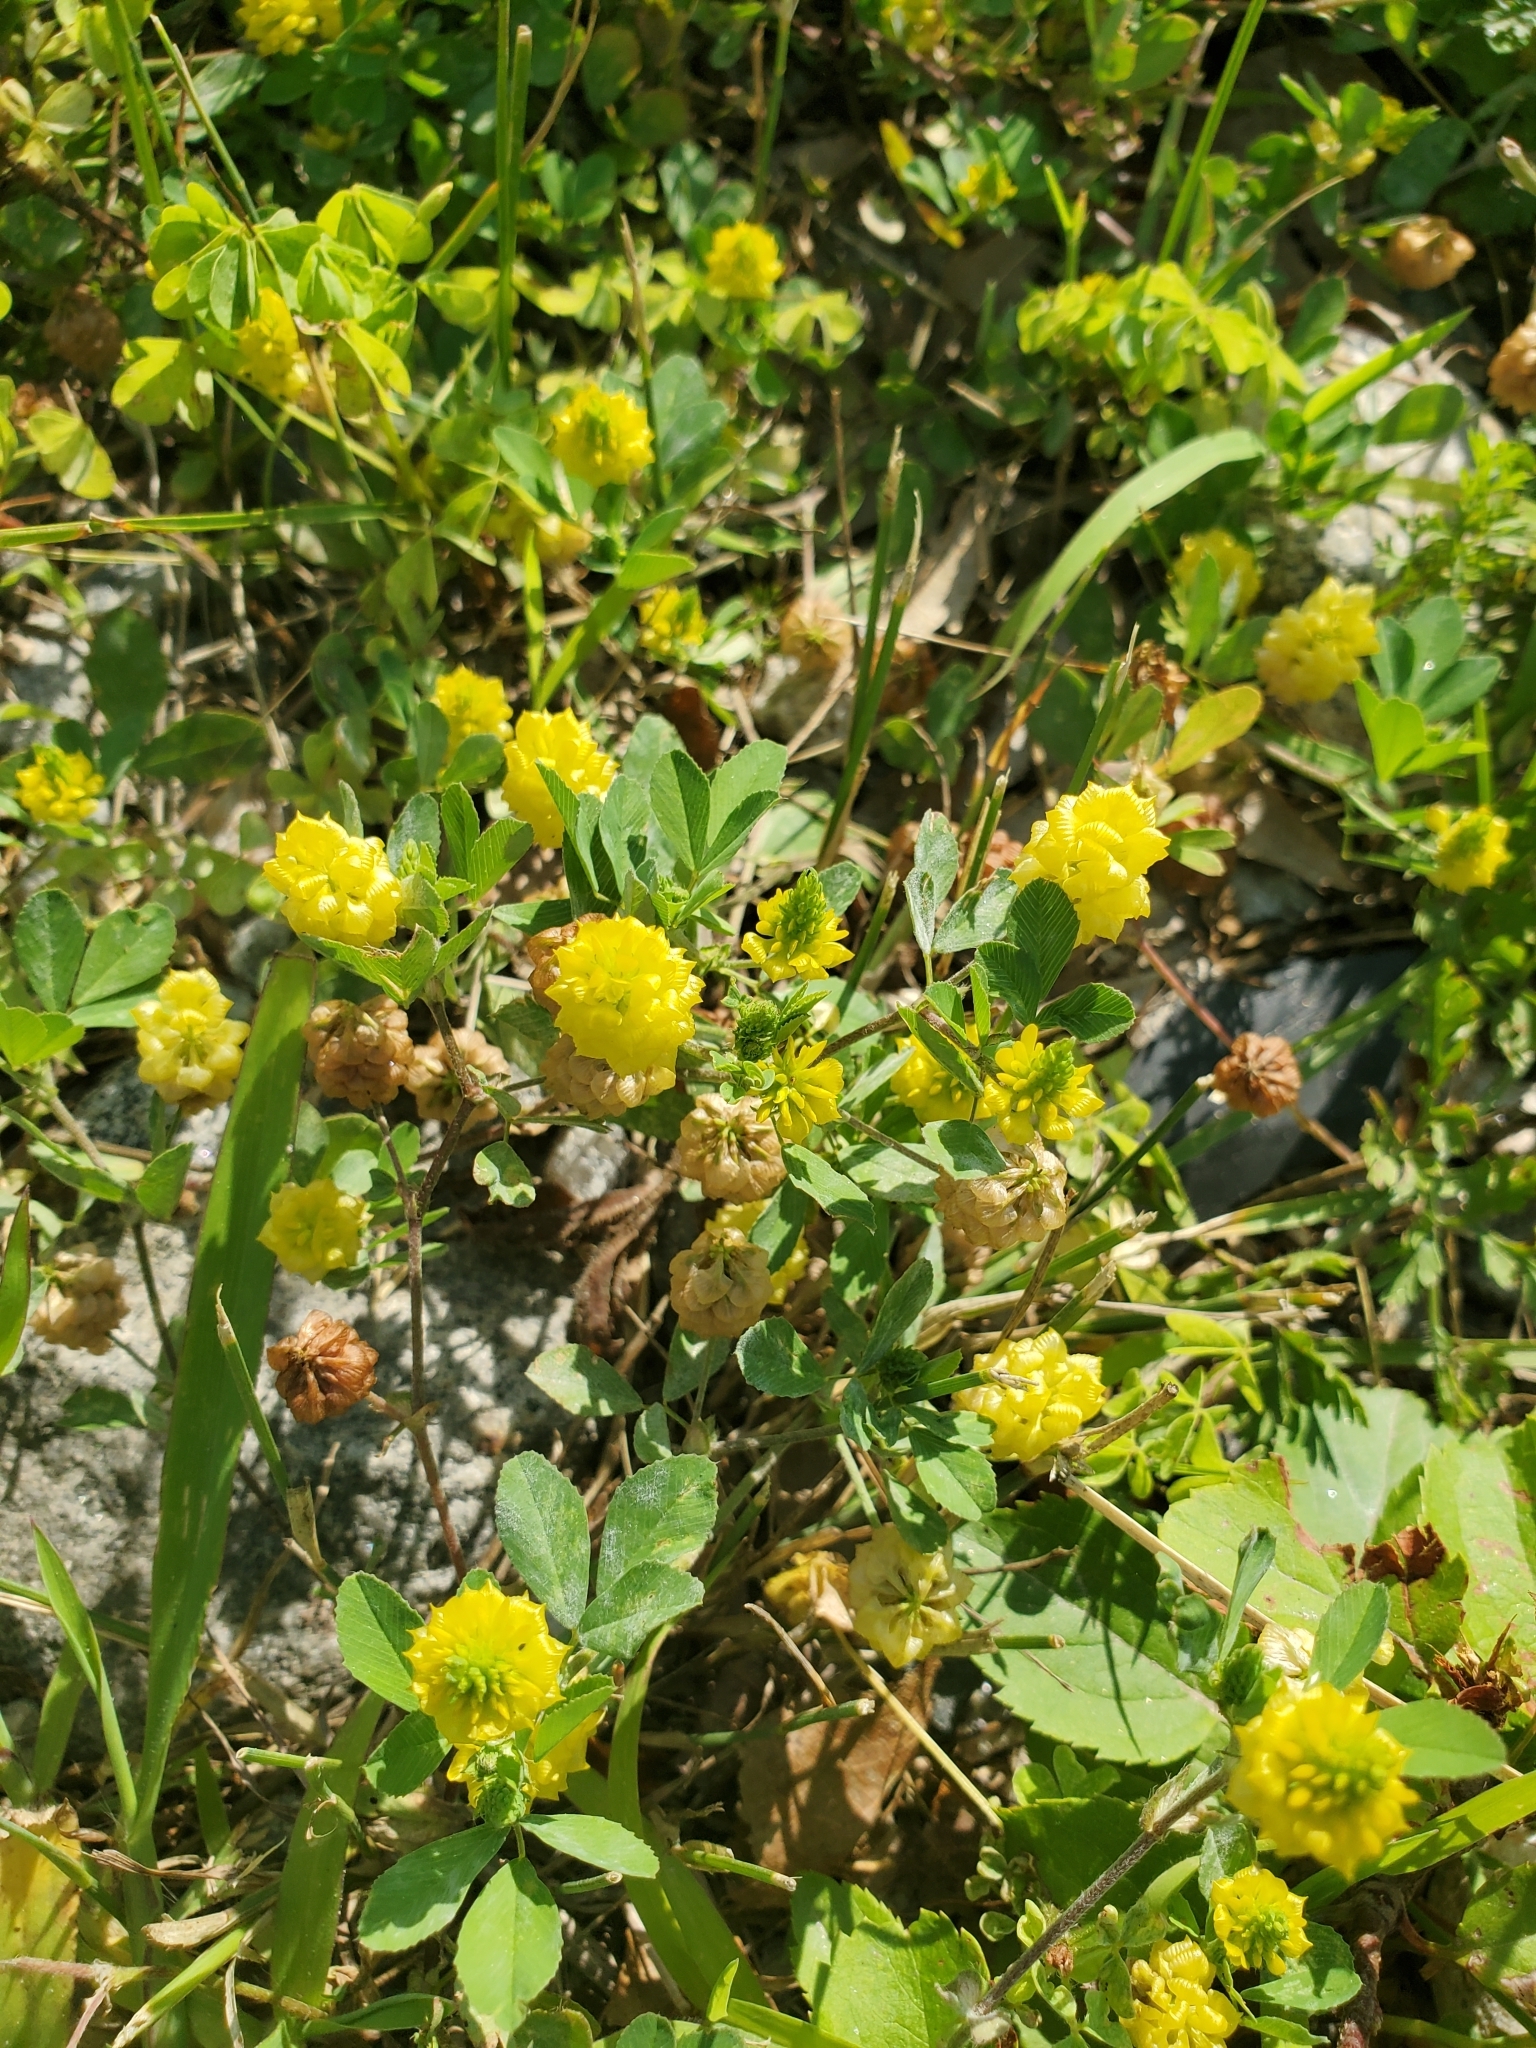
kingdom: Plantae
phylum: Tracheophyta
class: Magnoliopsida
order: Fabales
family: Fabaceae
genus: Trifolium
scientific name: Trifolium campestre
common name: Field clover
